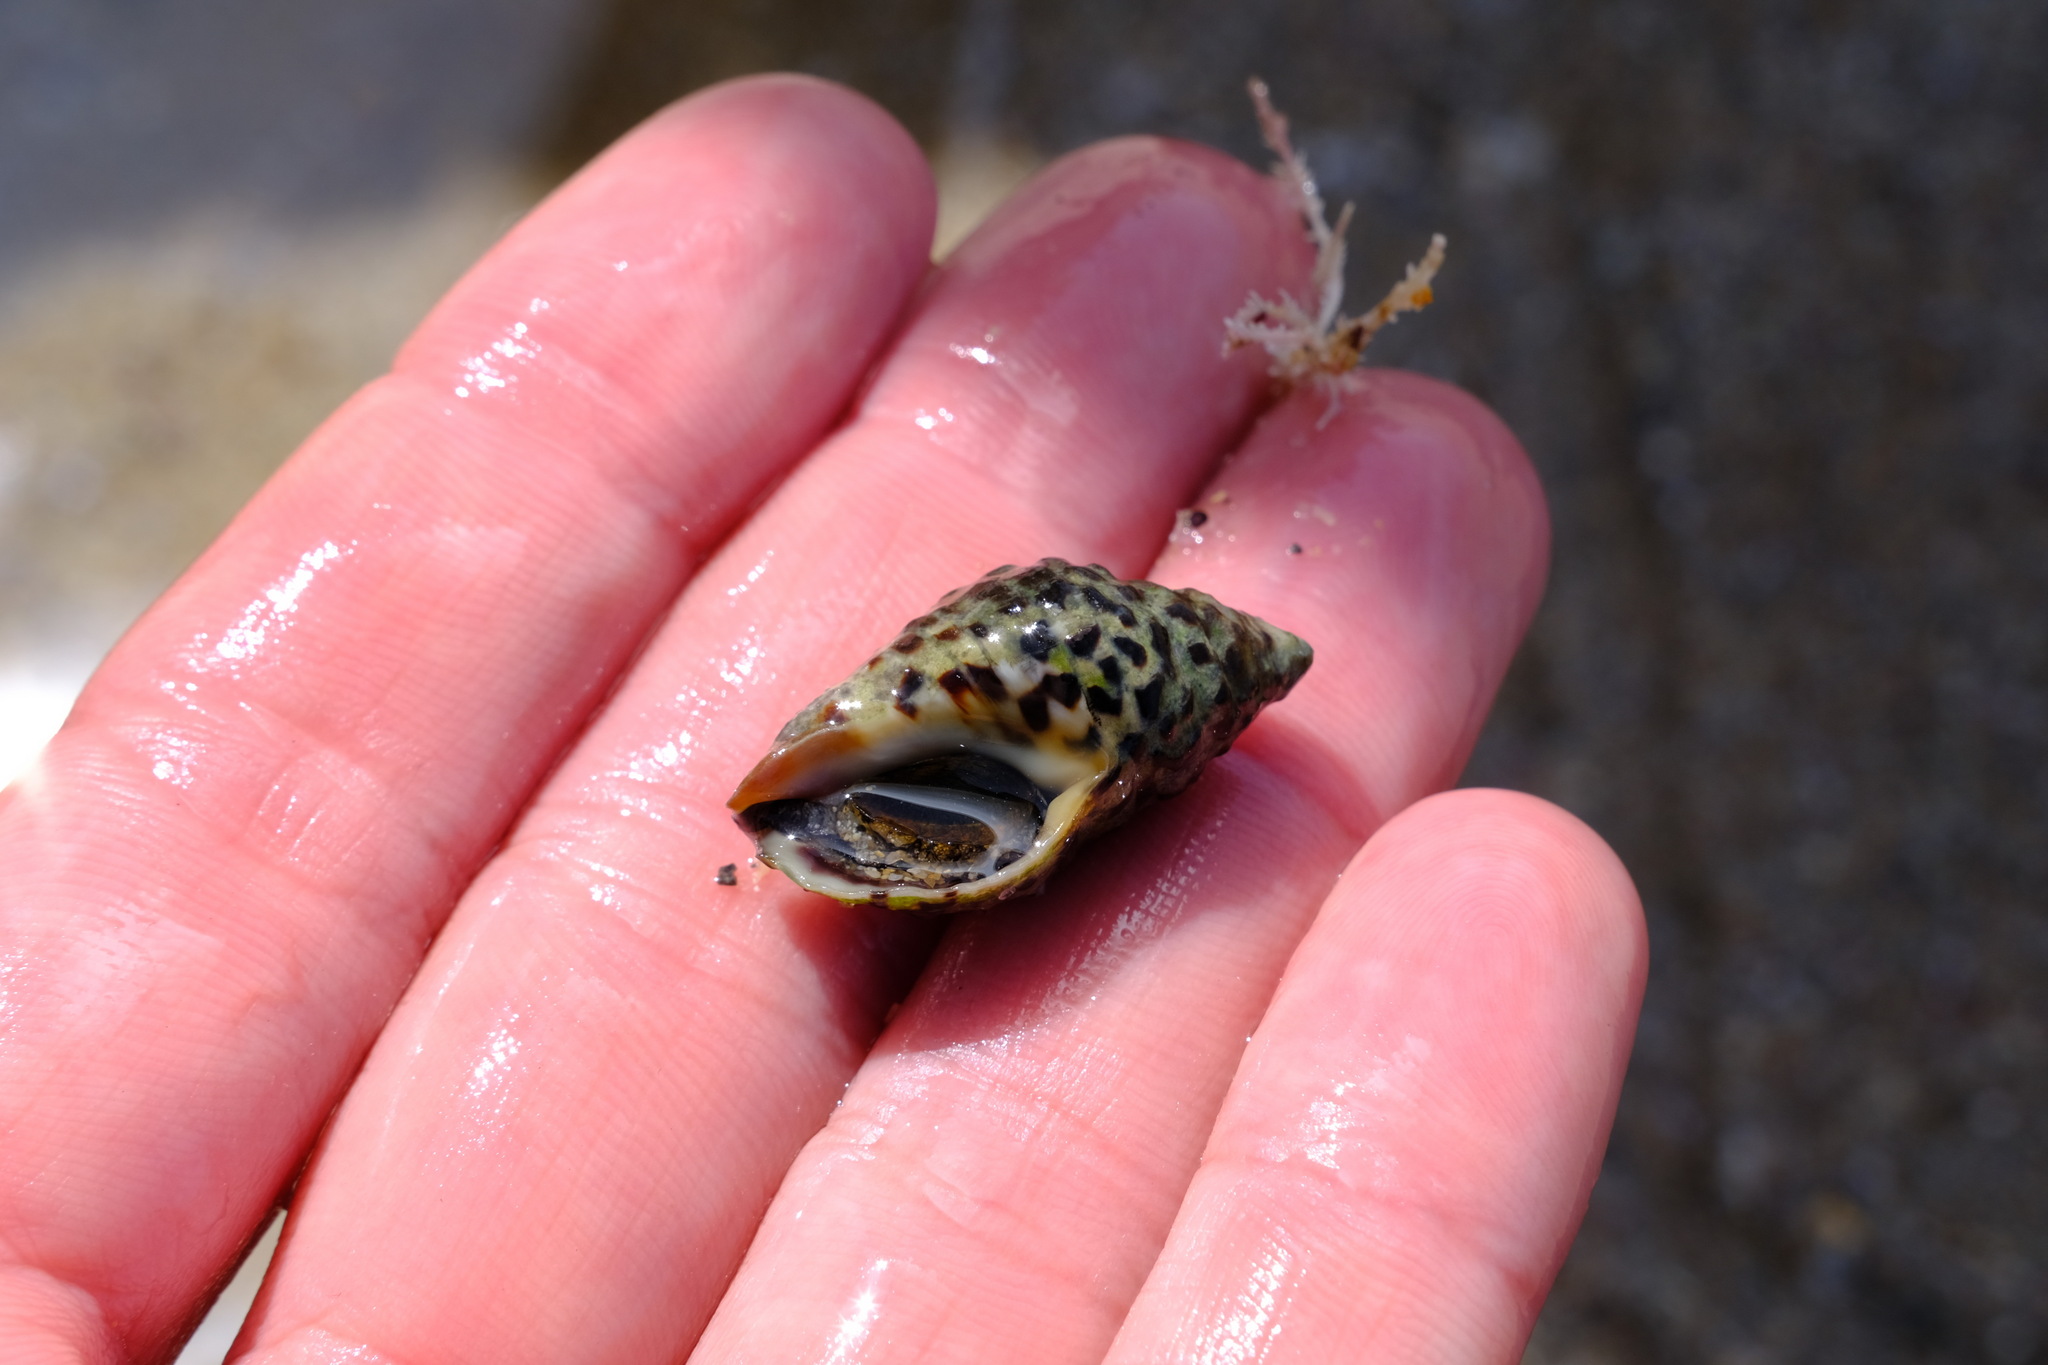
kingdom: Animalia
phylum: Mollusca
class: Gastropoda
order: Neogastropoda
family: Cominellidae
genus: Cominella
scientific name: Cominella lineolata
